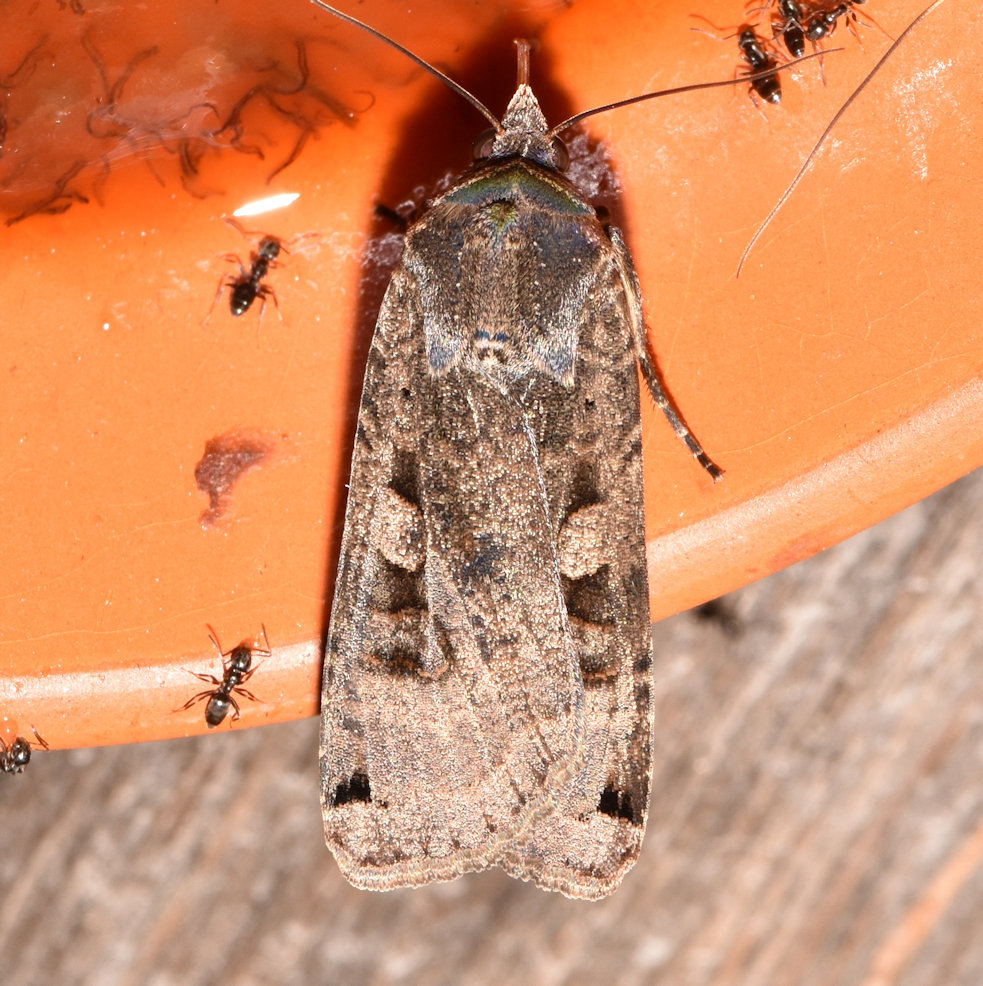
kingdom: Animalia
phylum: Arthropoda
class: Insecta
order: Lepidoptera
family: Noctuidae
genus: Noctua
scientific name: Noctua pronuba
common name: Large yellow underwing
